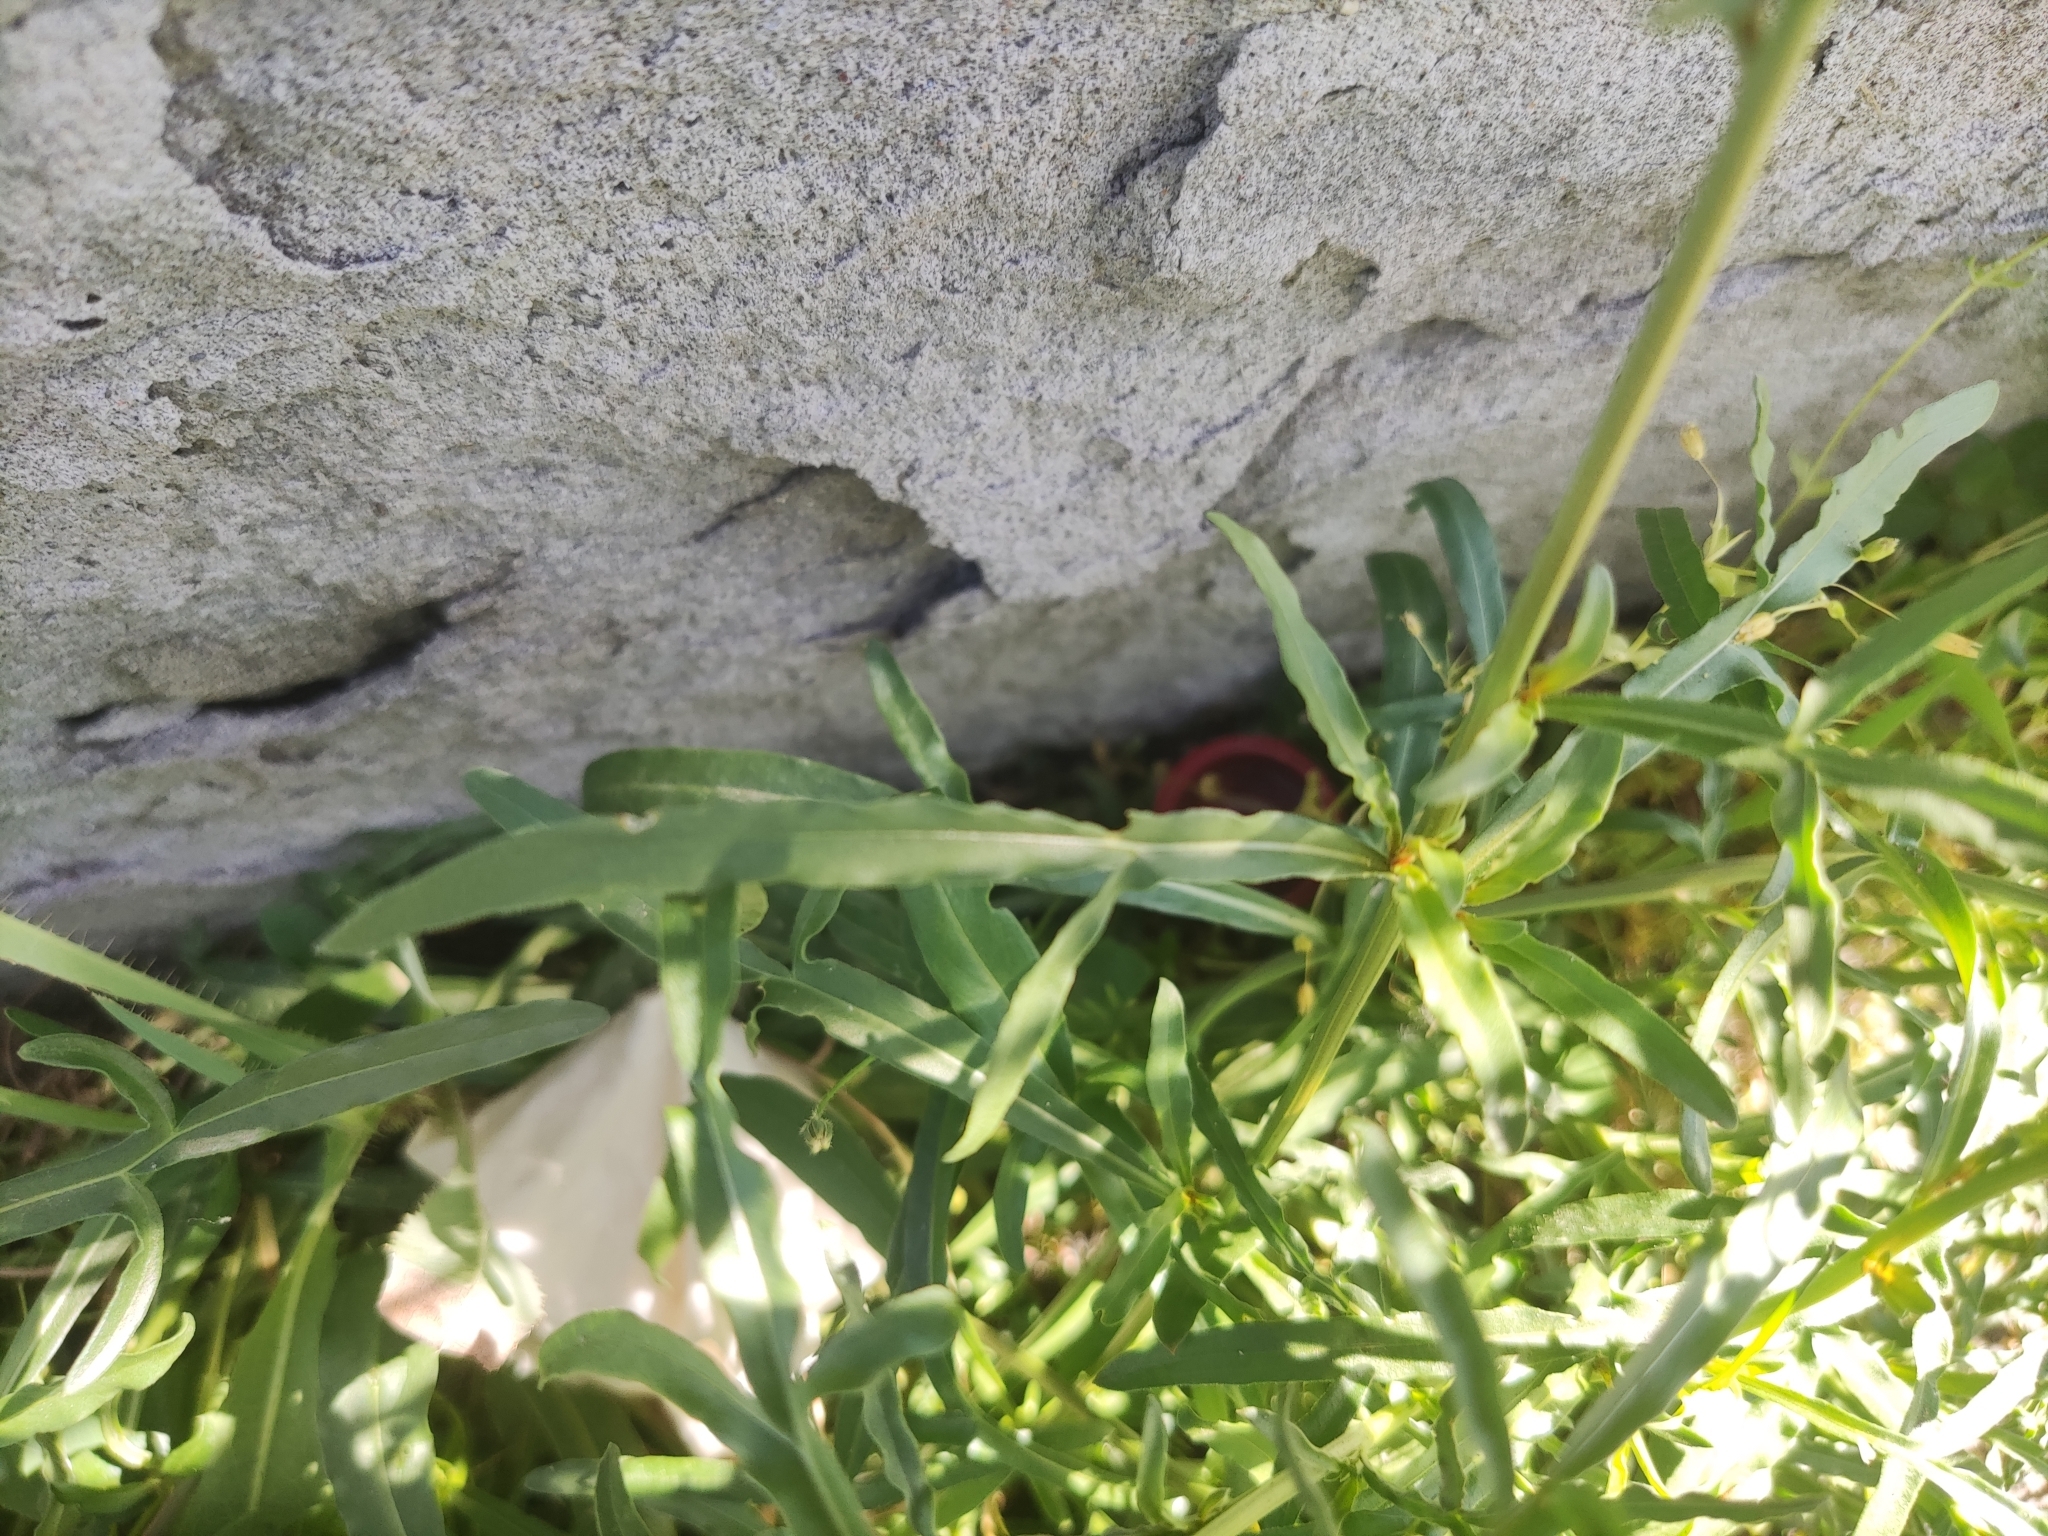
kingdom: Plantae
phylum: Tracheophyta
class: Magnoliopsida
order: Brassicales
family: Resedaceae
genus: Reseda
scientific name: Reseda lutea
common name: Wild mignonette
